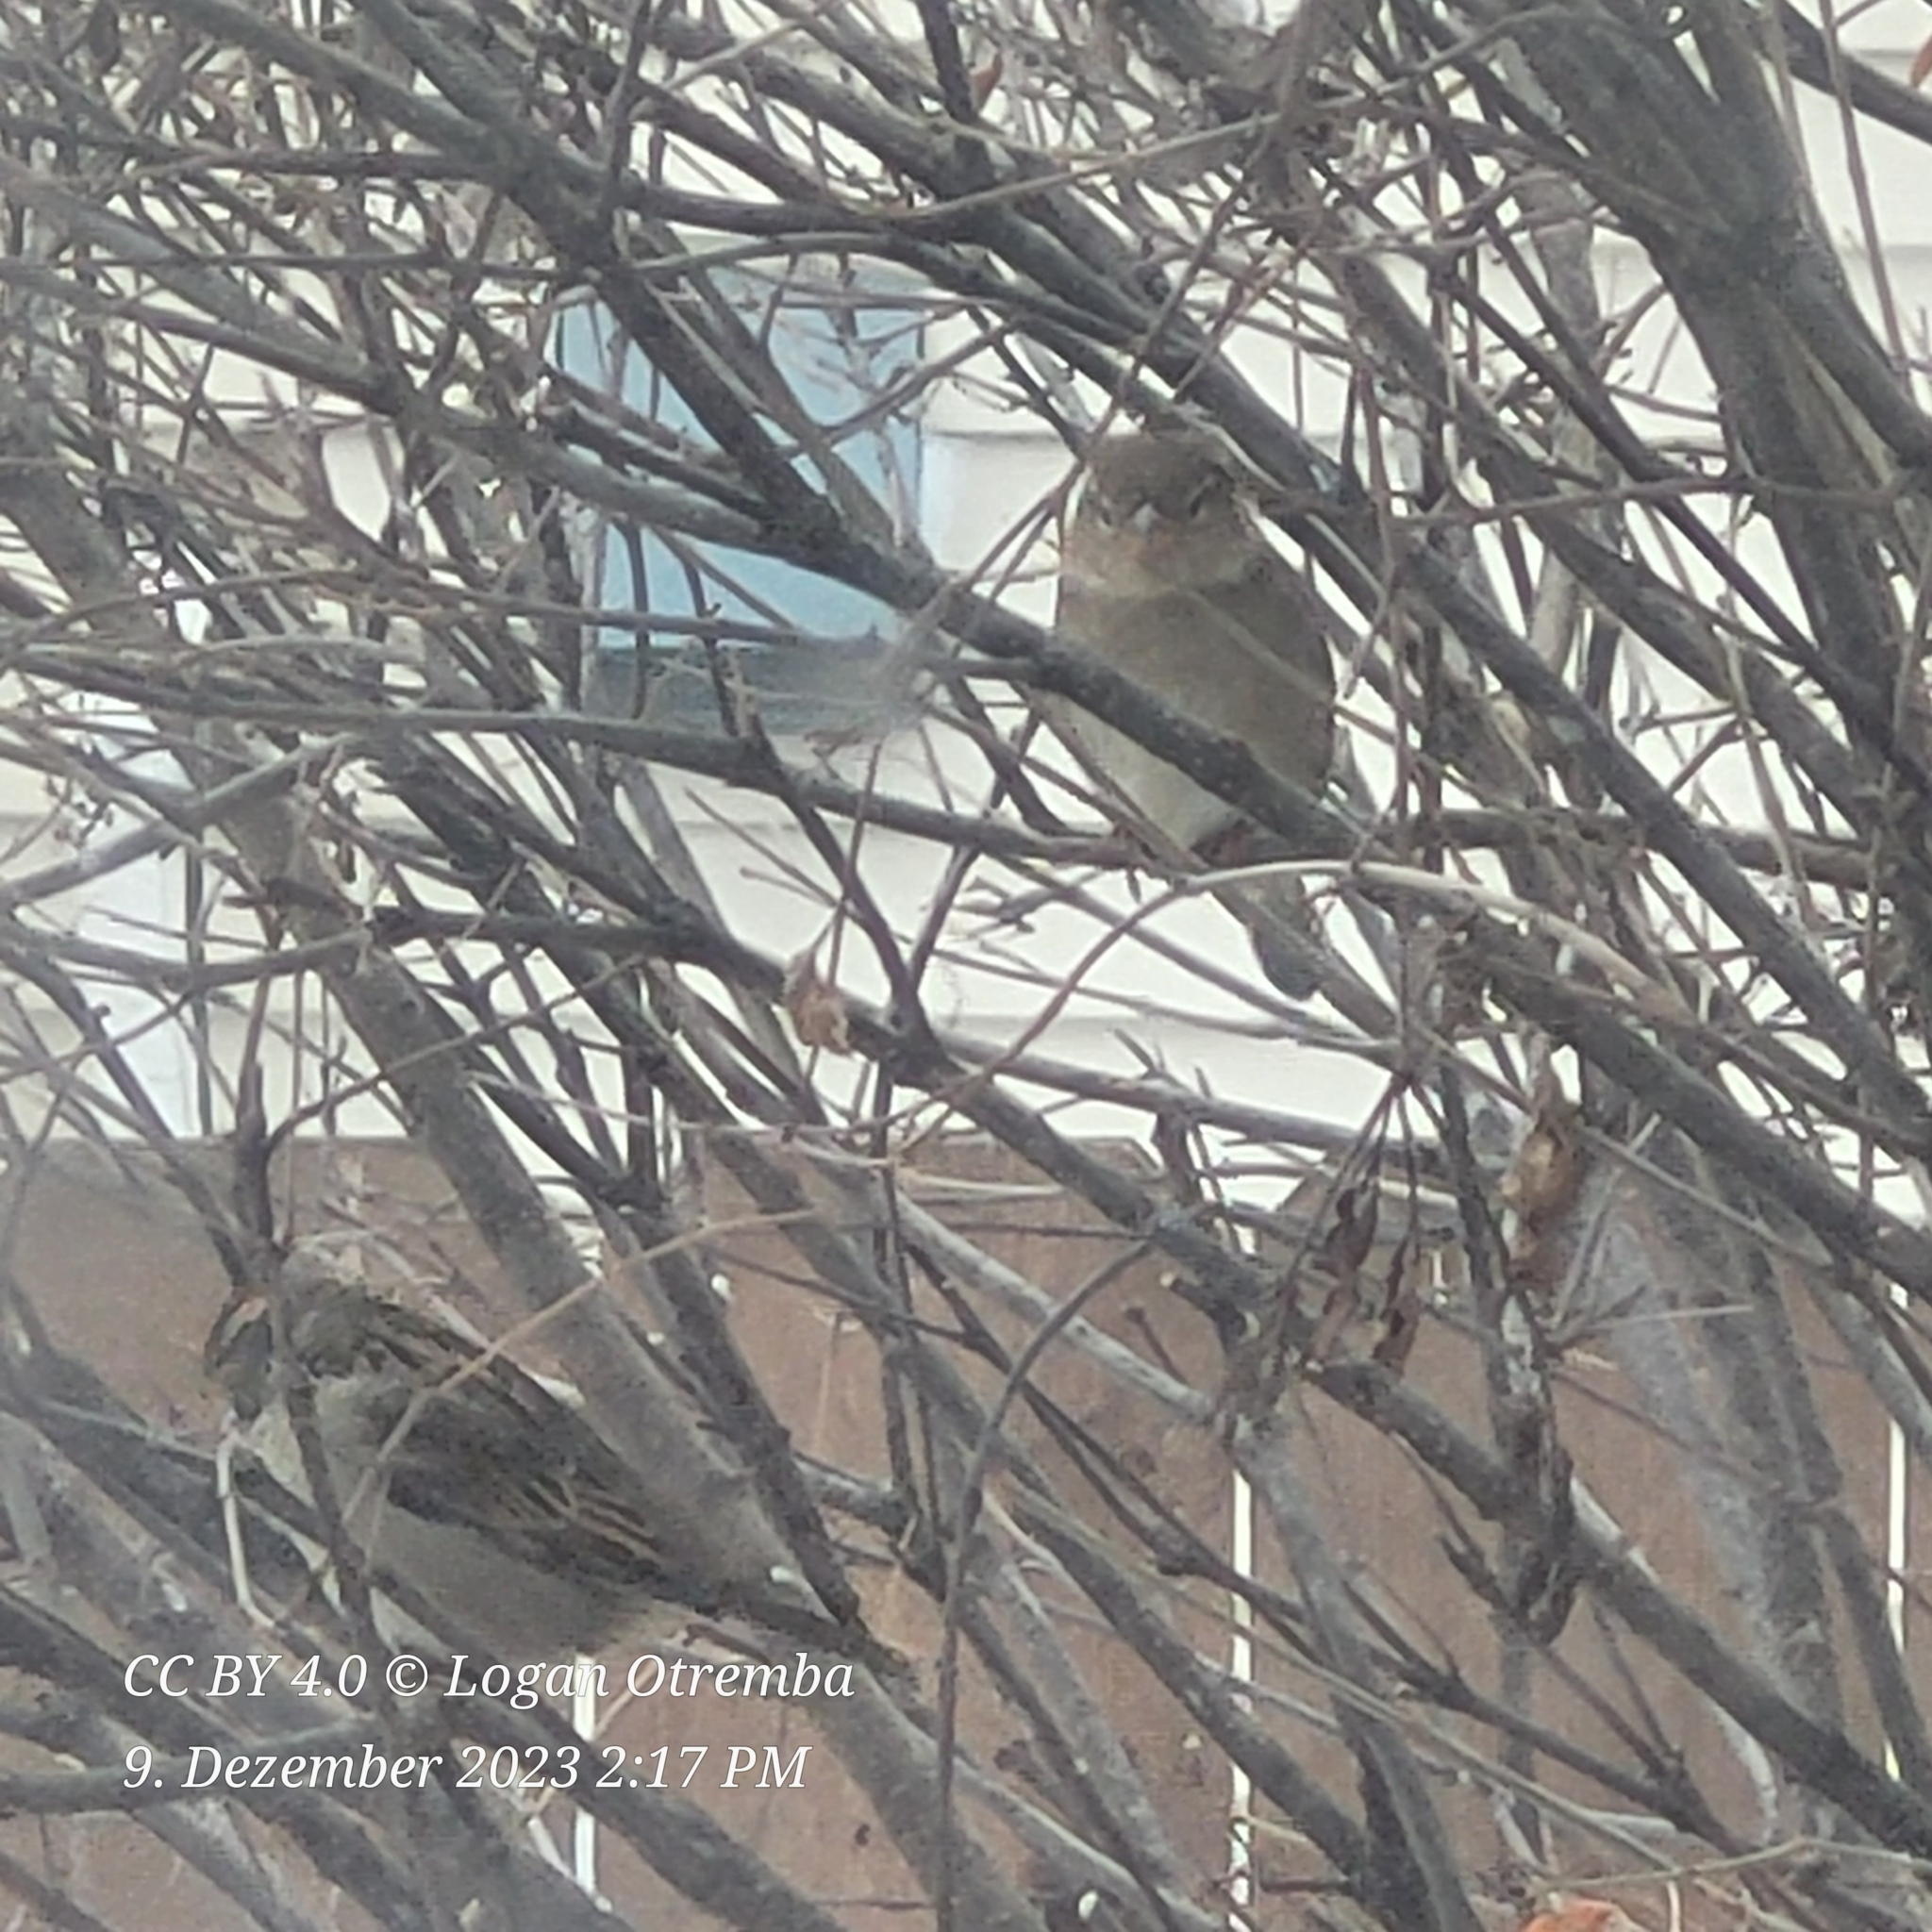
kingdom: Animalia
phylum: Chordata
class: Aves
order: Passeriformes
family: Passeridae
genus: Passer
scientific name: Passer domesticus
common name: House sparrow
